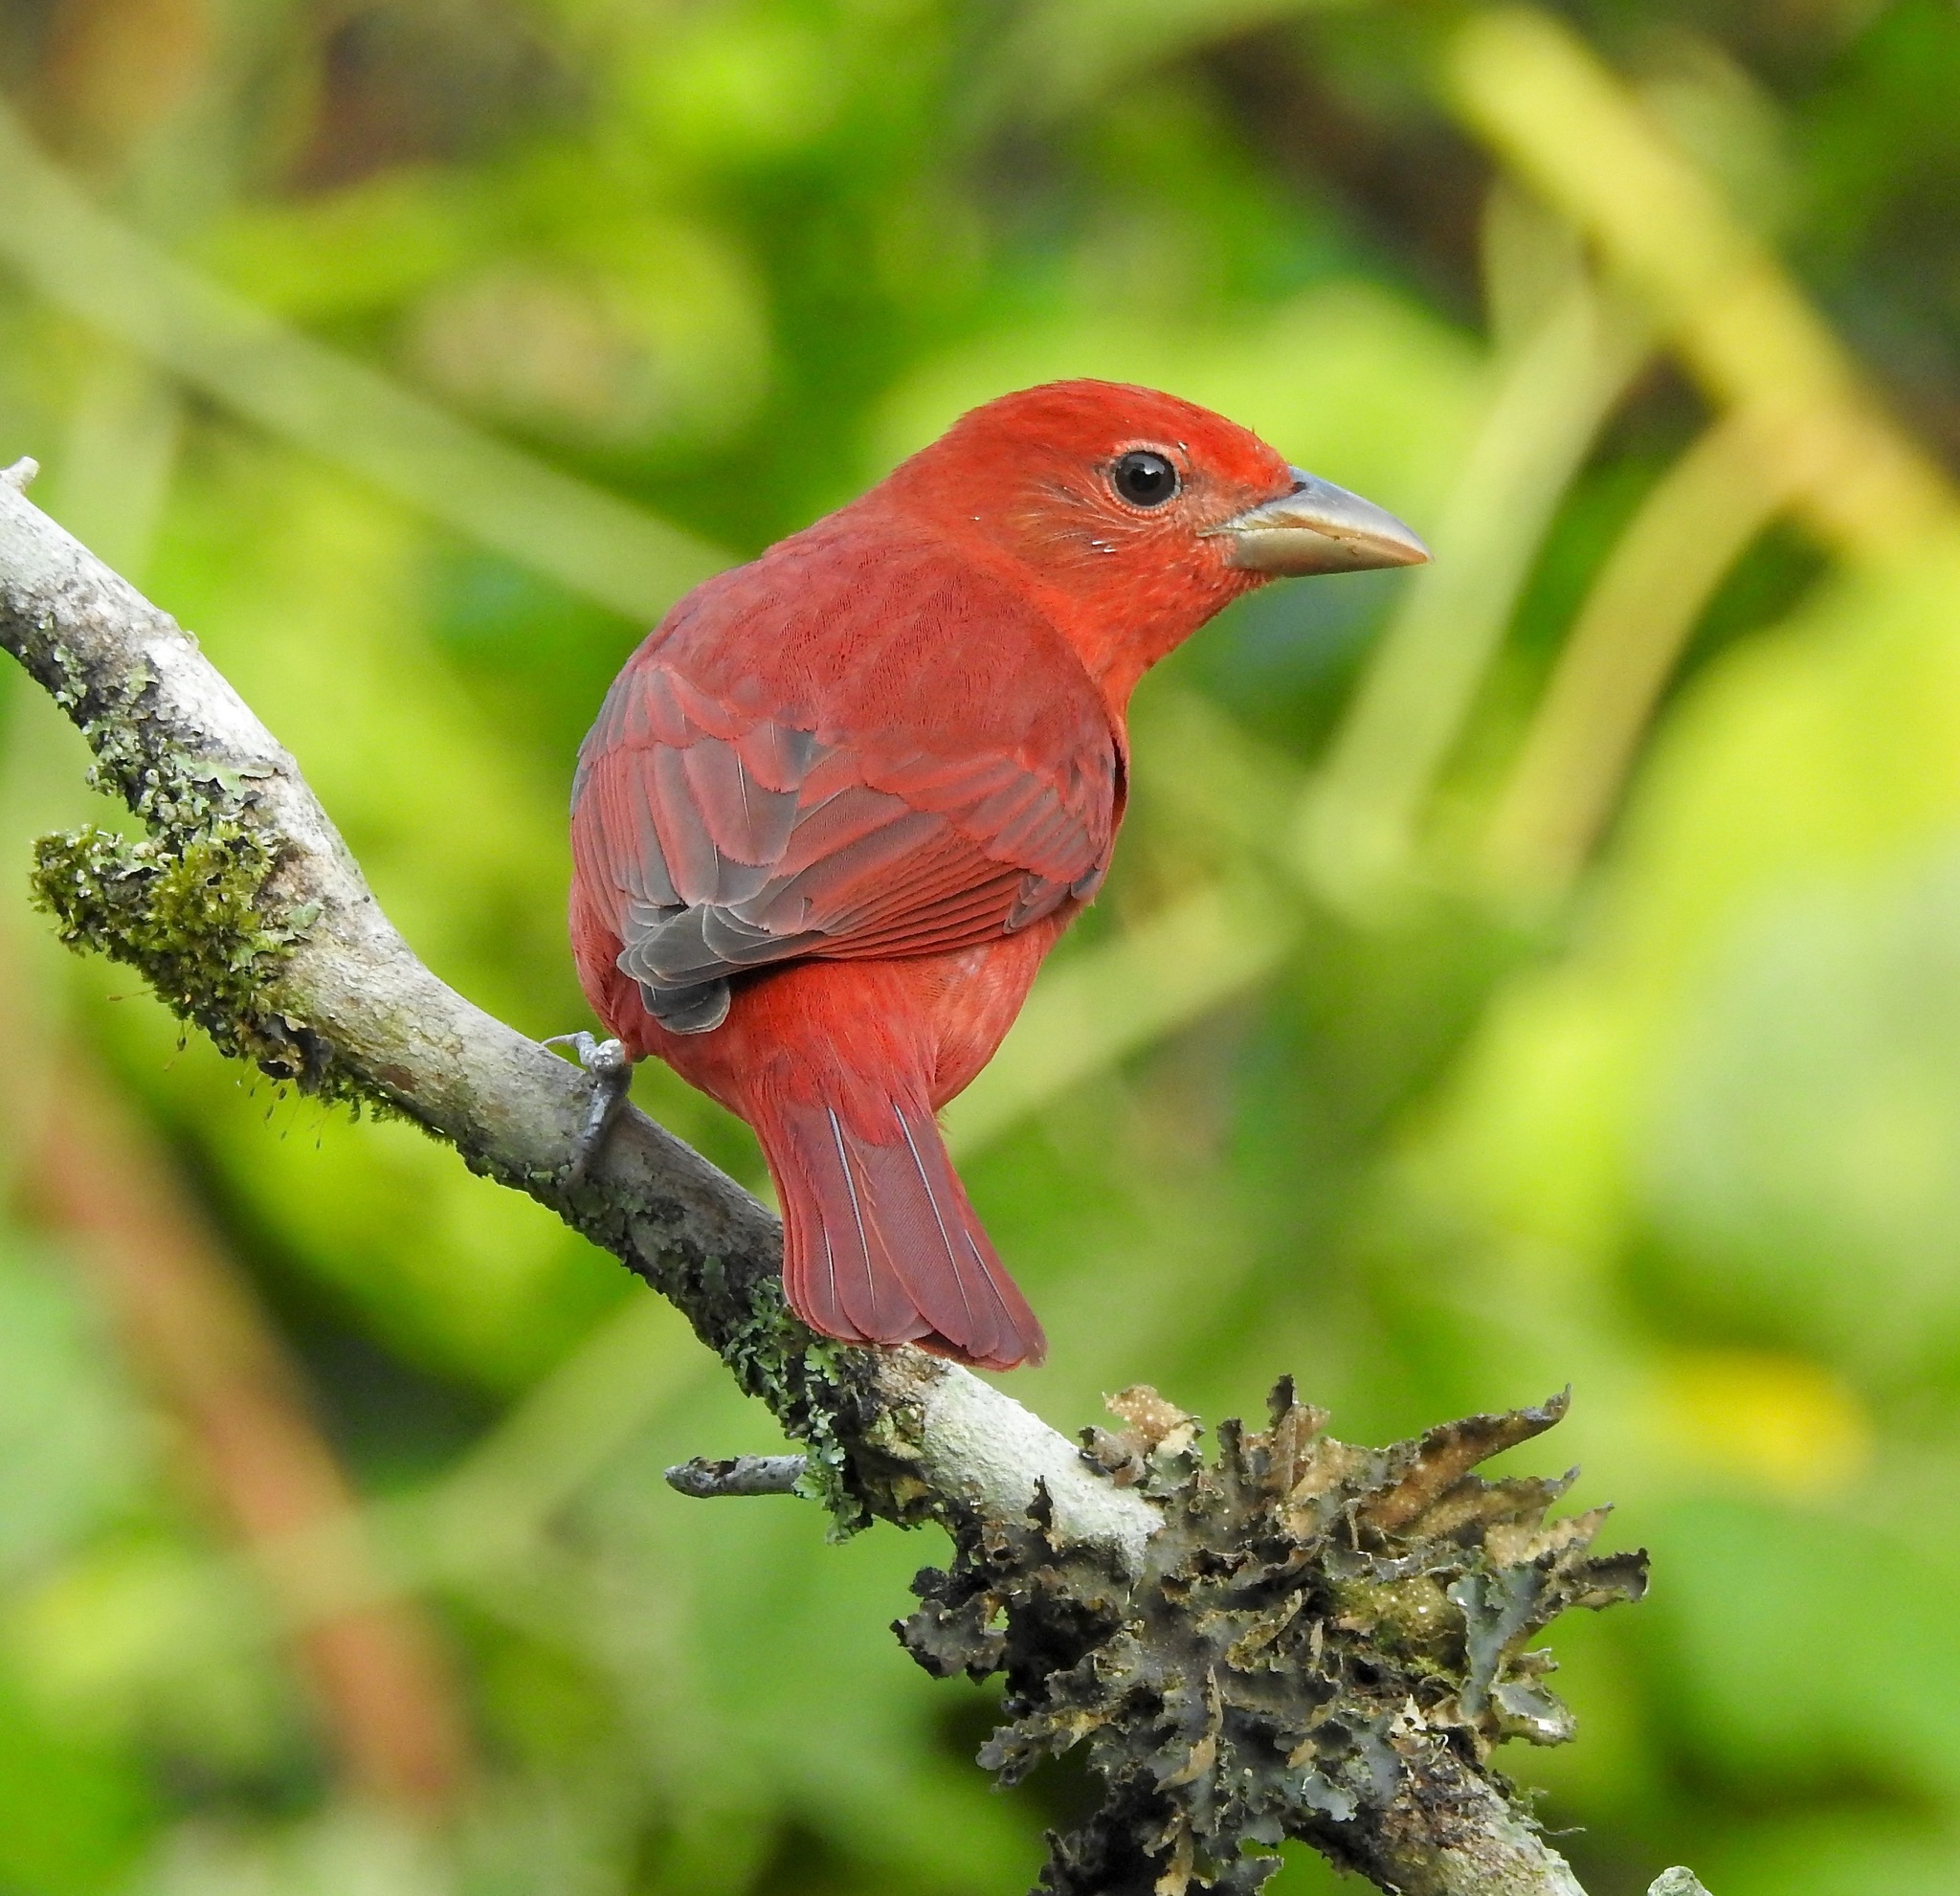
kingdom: Animalia
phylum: Chordata
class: Aves
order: Passeriformes
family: Cardinalidae
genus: Piranga
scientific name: Piranga rubra
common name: Summer tanager
